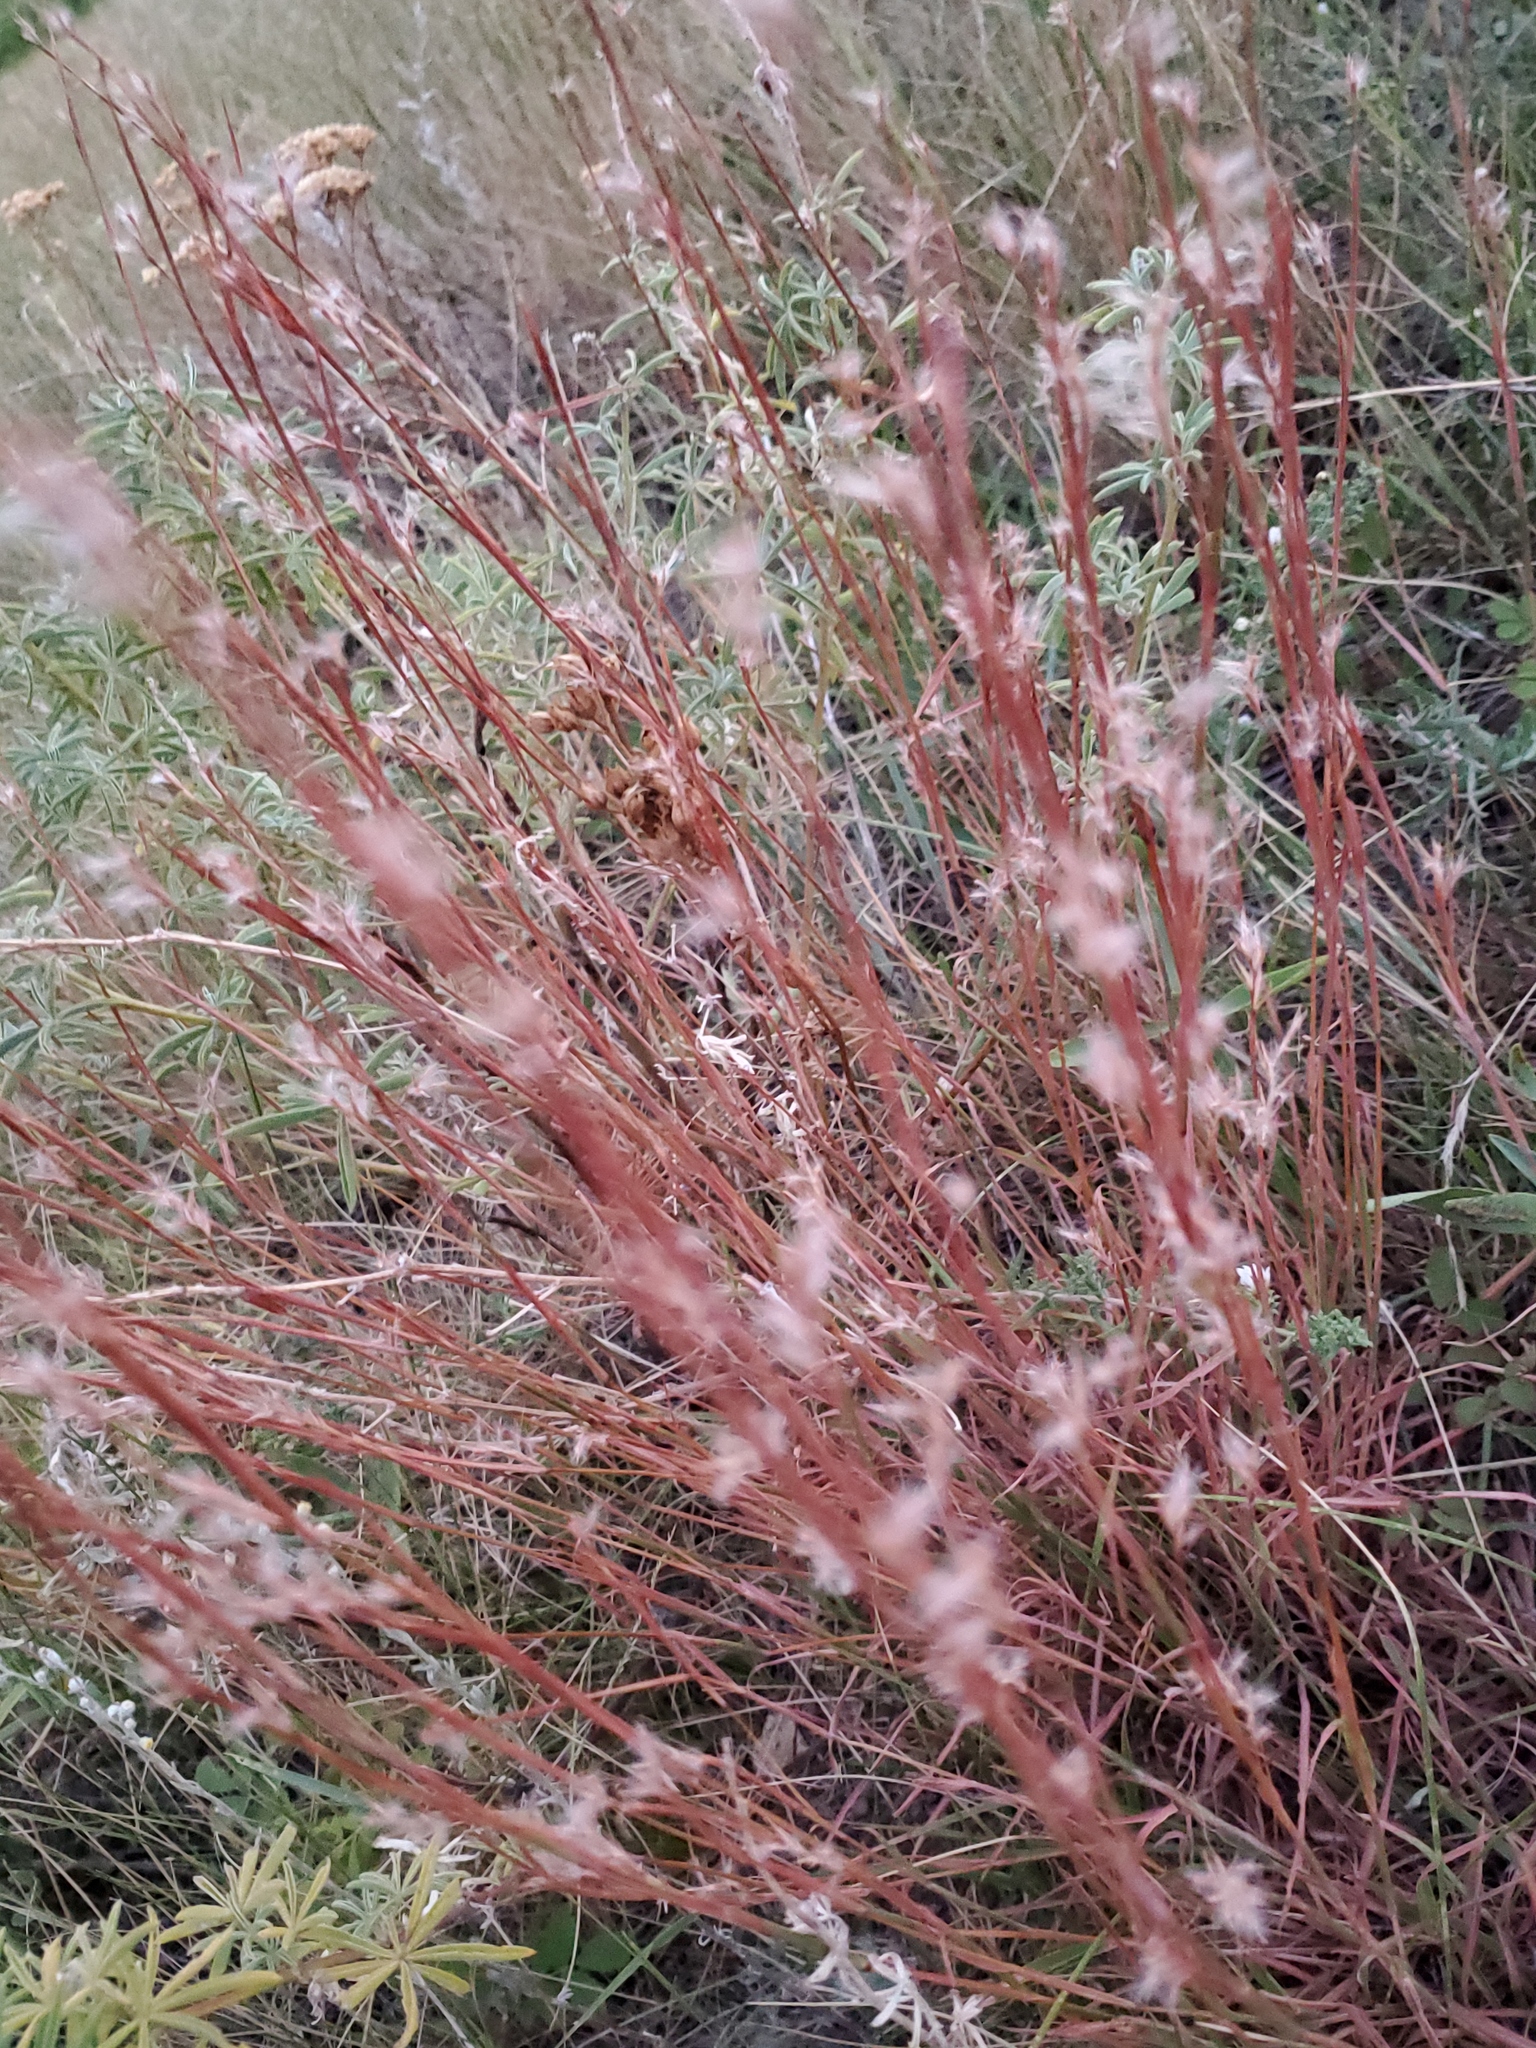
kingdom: Plantae
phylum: Tracheophyta
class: Liliopsida
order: Poales
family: Poaceae
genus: Schizachyrium
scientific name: Schizachyrium scoparium
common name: Little bluestem
